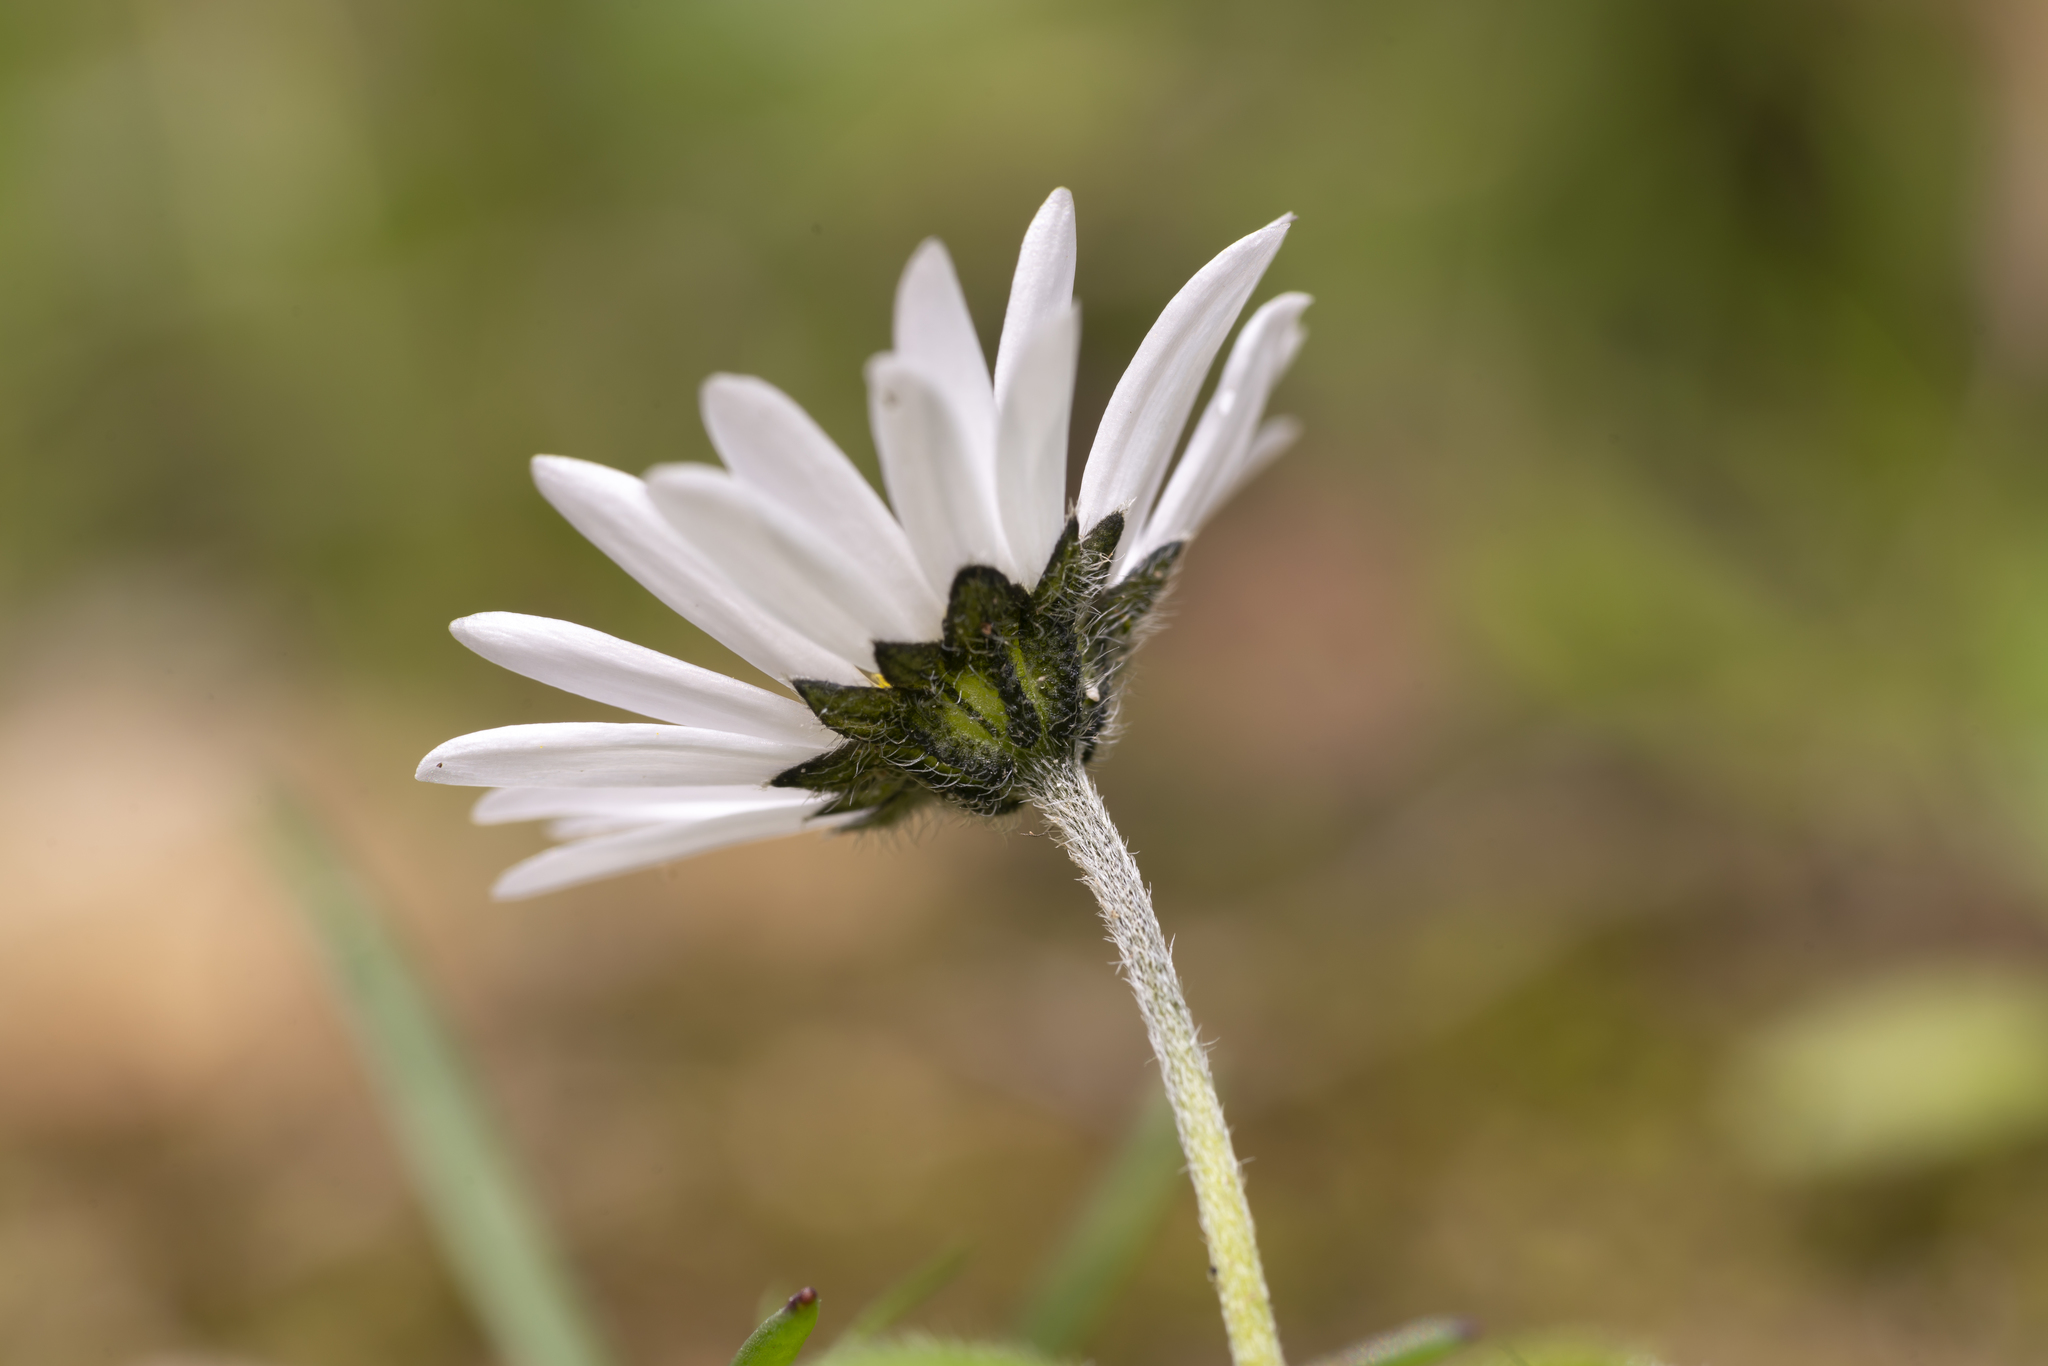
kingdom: Plantae
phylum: Tracheophyta
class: Magnoliopsida
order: Asterales
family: Asteraceae
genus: Bellis
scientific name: Bellis annua
